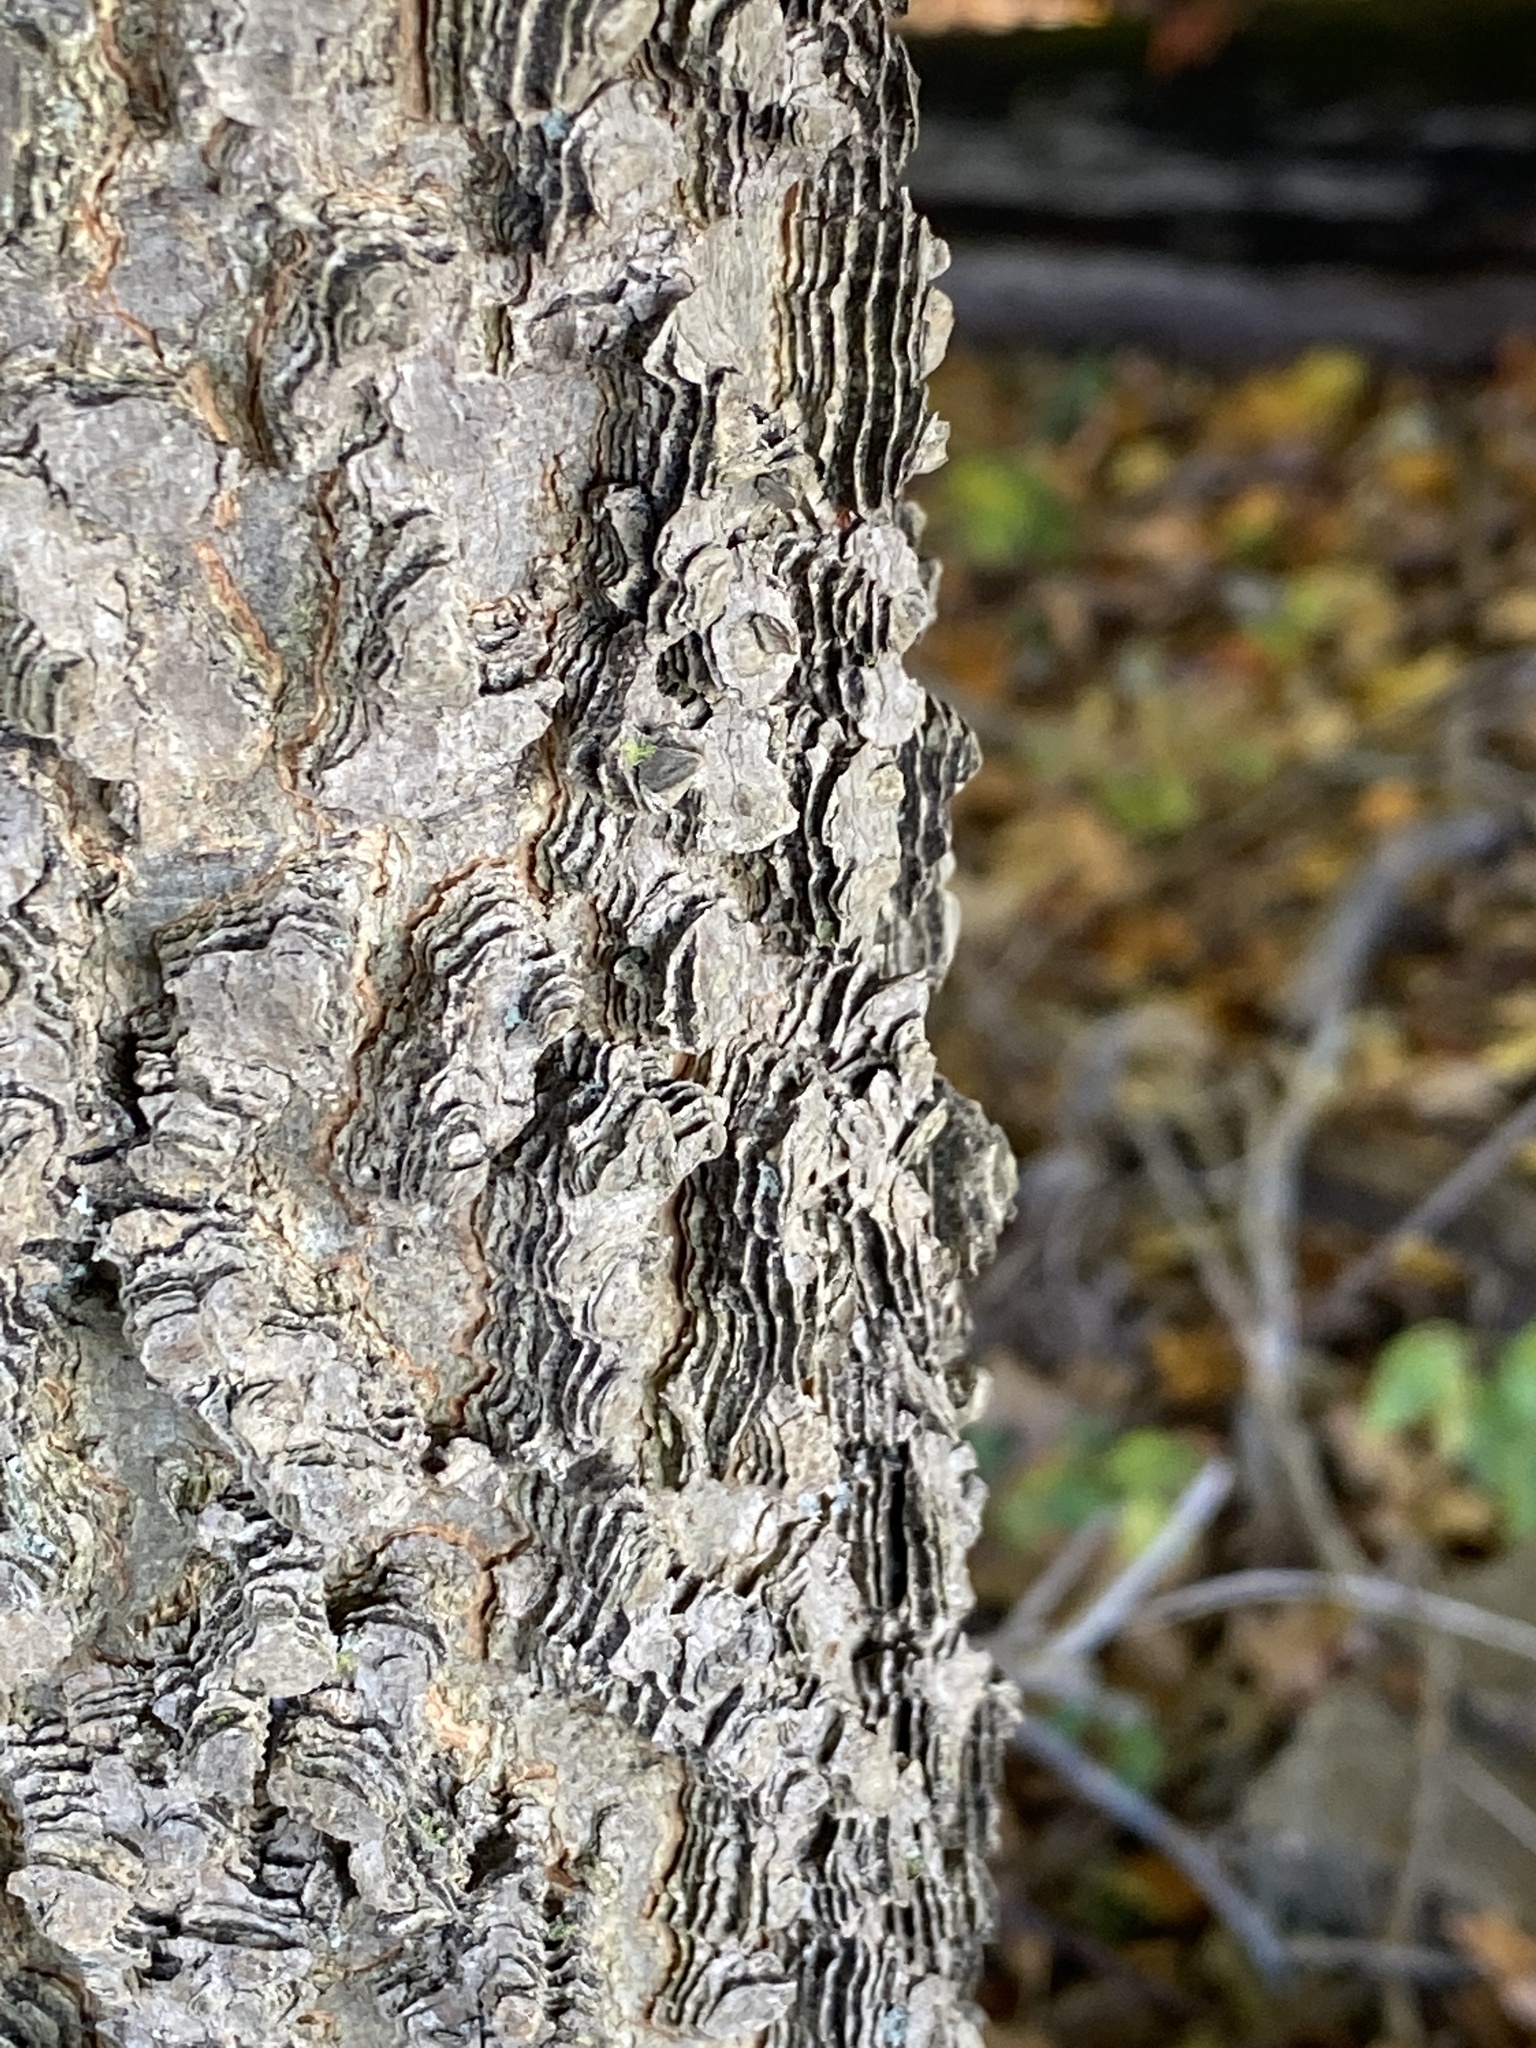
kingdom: Plantae
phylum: Tracheophyta
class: Magnoliopsida
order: Rosales
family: Cannabaceae
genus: Celtis
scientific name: Celtis occidentalis
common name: Common hackberry
